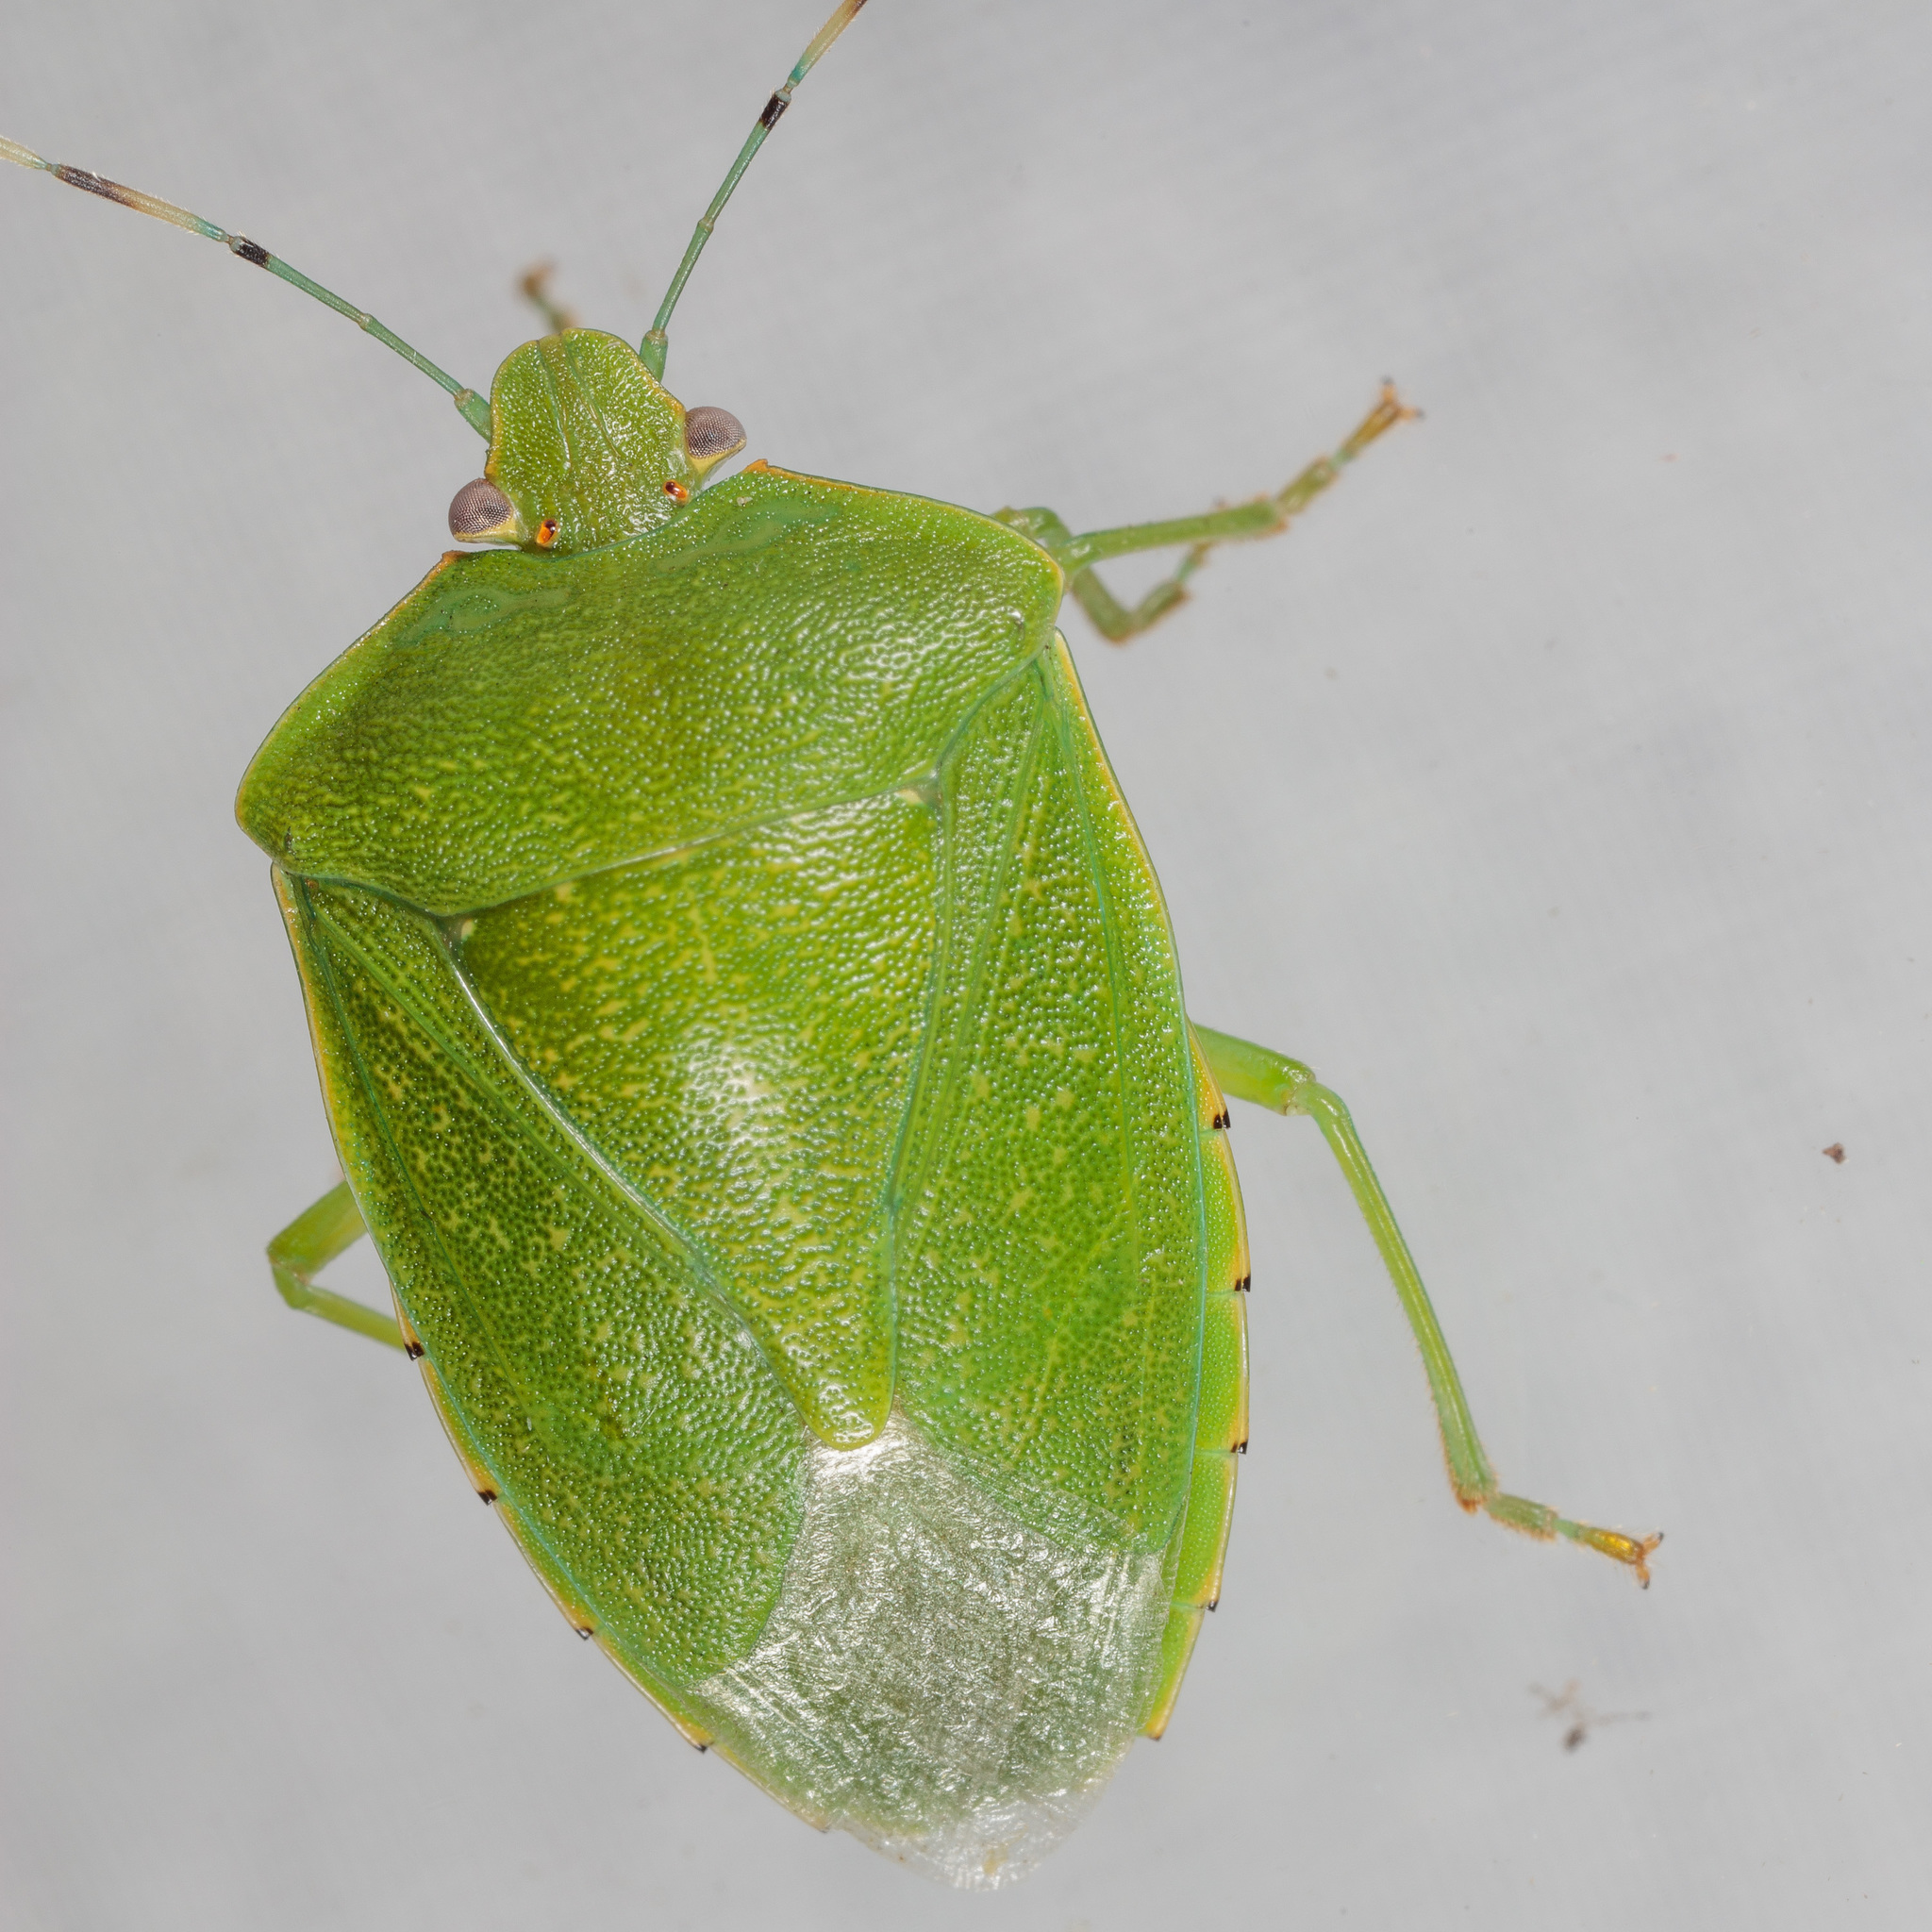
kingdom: Animalia
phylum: Arthropoda
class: Insecta
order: Hemiptera
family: Pentatomidae
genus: Chinavia
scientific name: Chinavia hilaris
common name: Green stink bug
